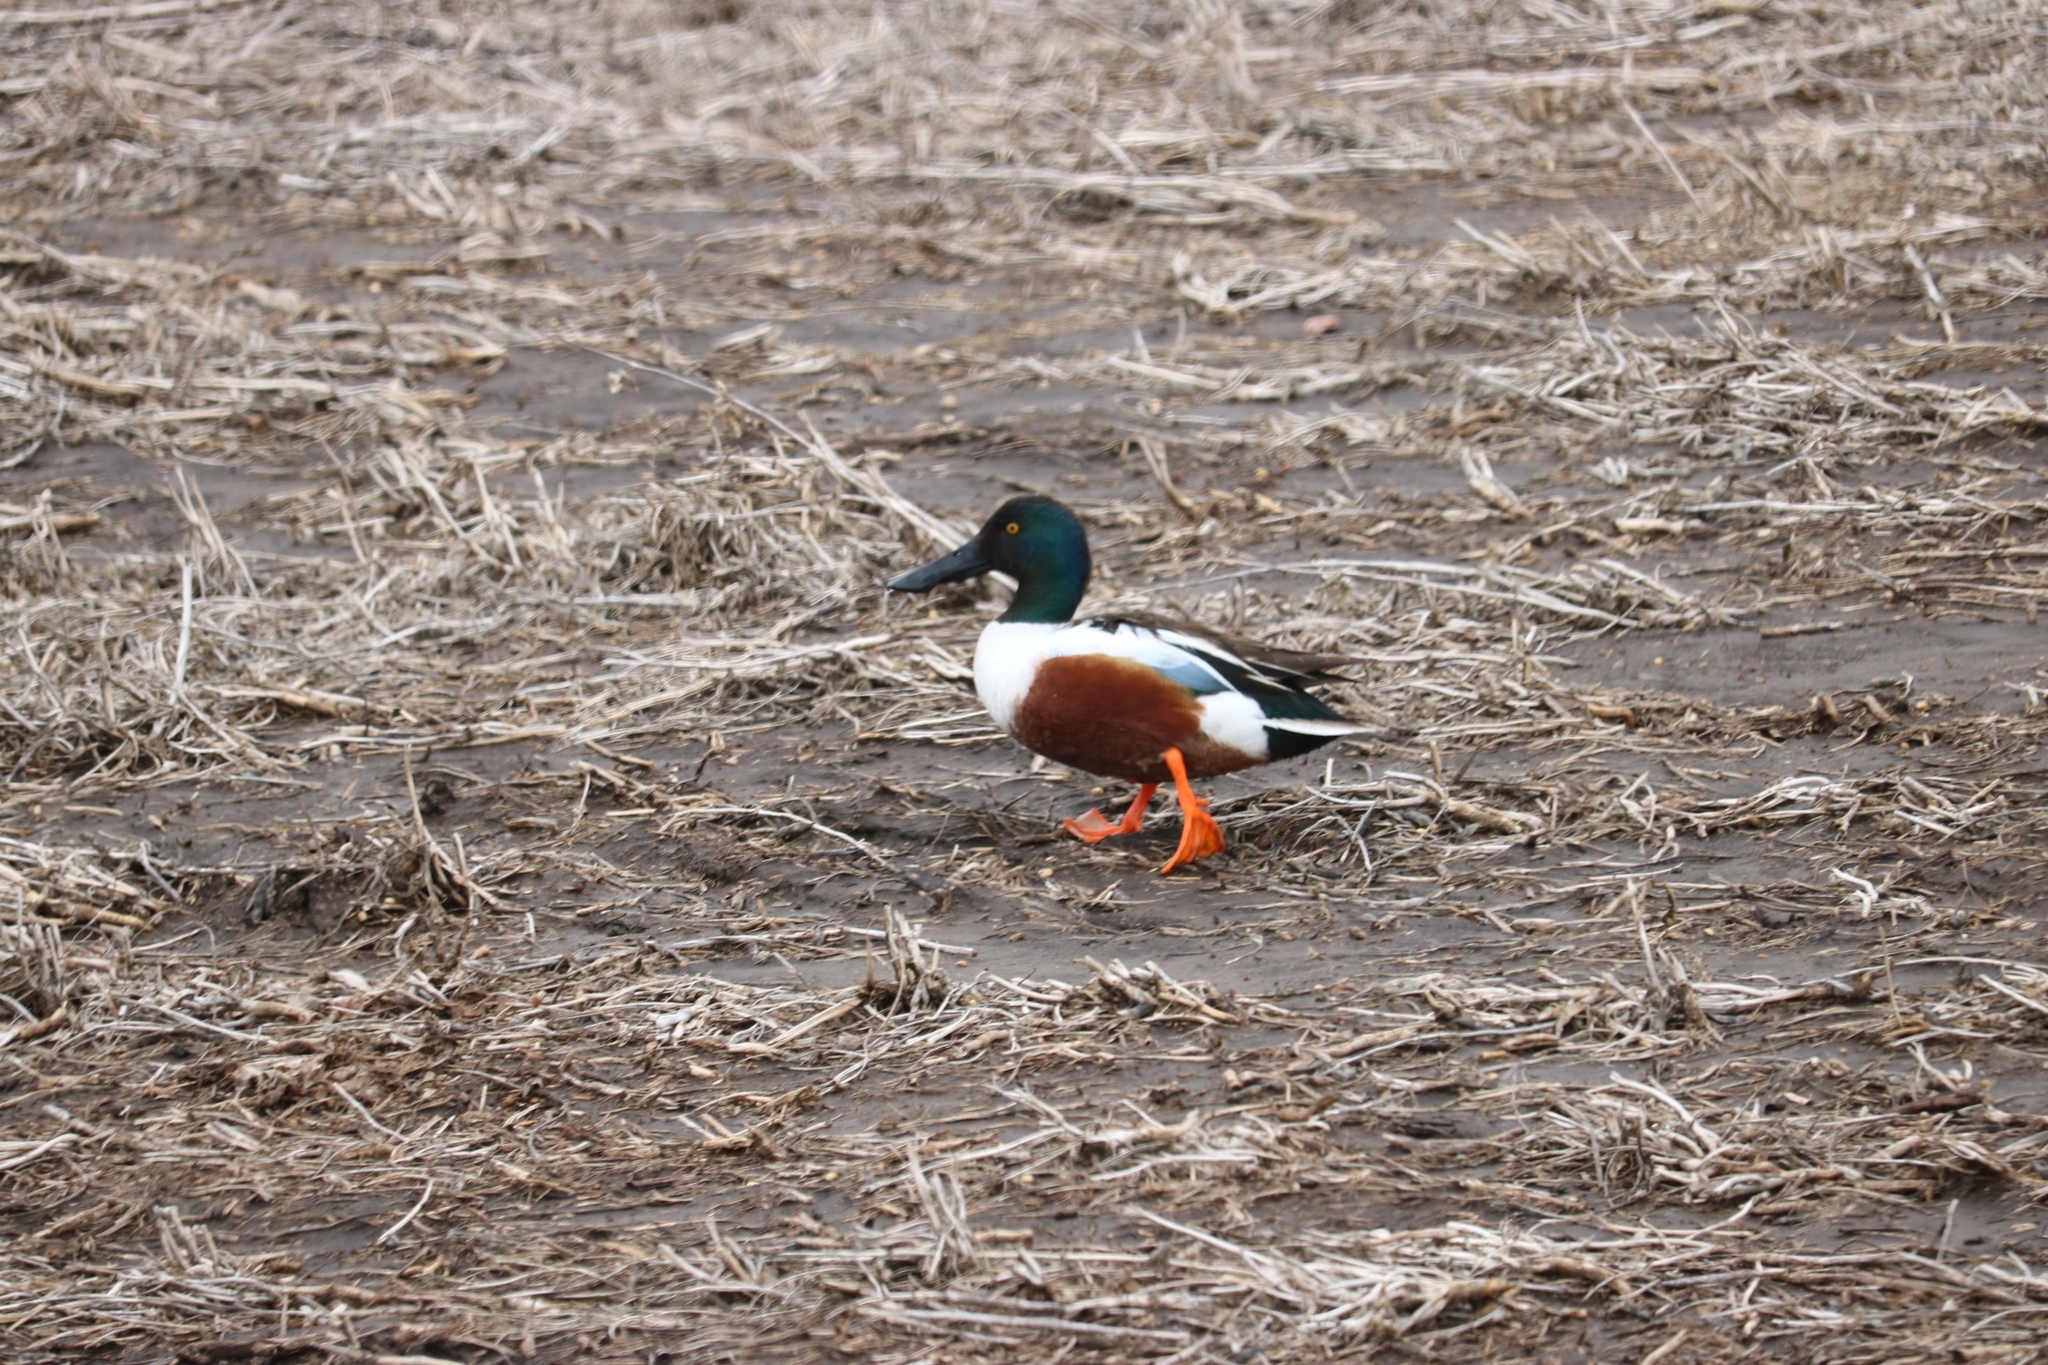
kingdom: Animalia
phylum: Chordata
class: Aves
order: Anseriformes
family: Anatidae
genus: Spatula
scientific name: Spatula clypeata
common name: Northern shoveler
